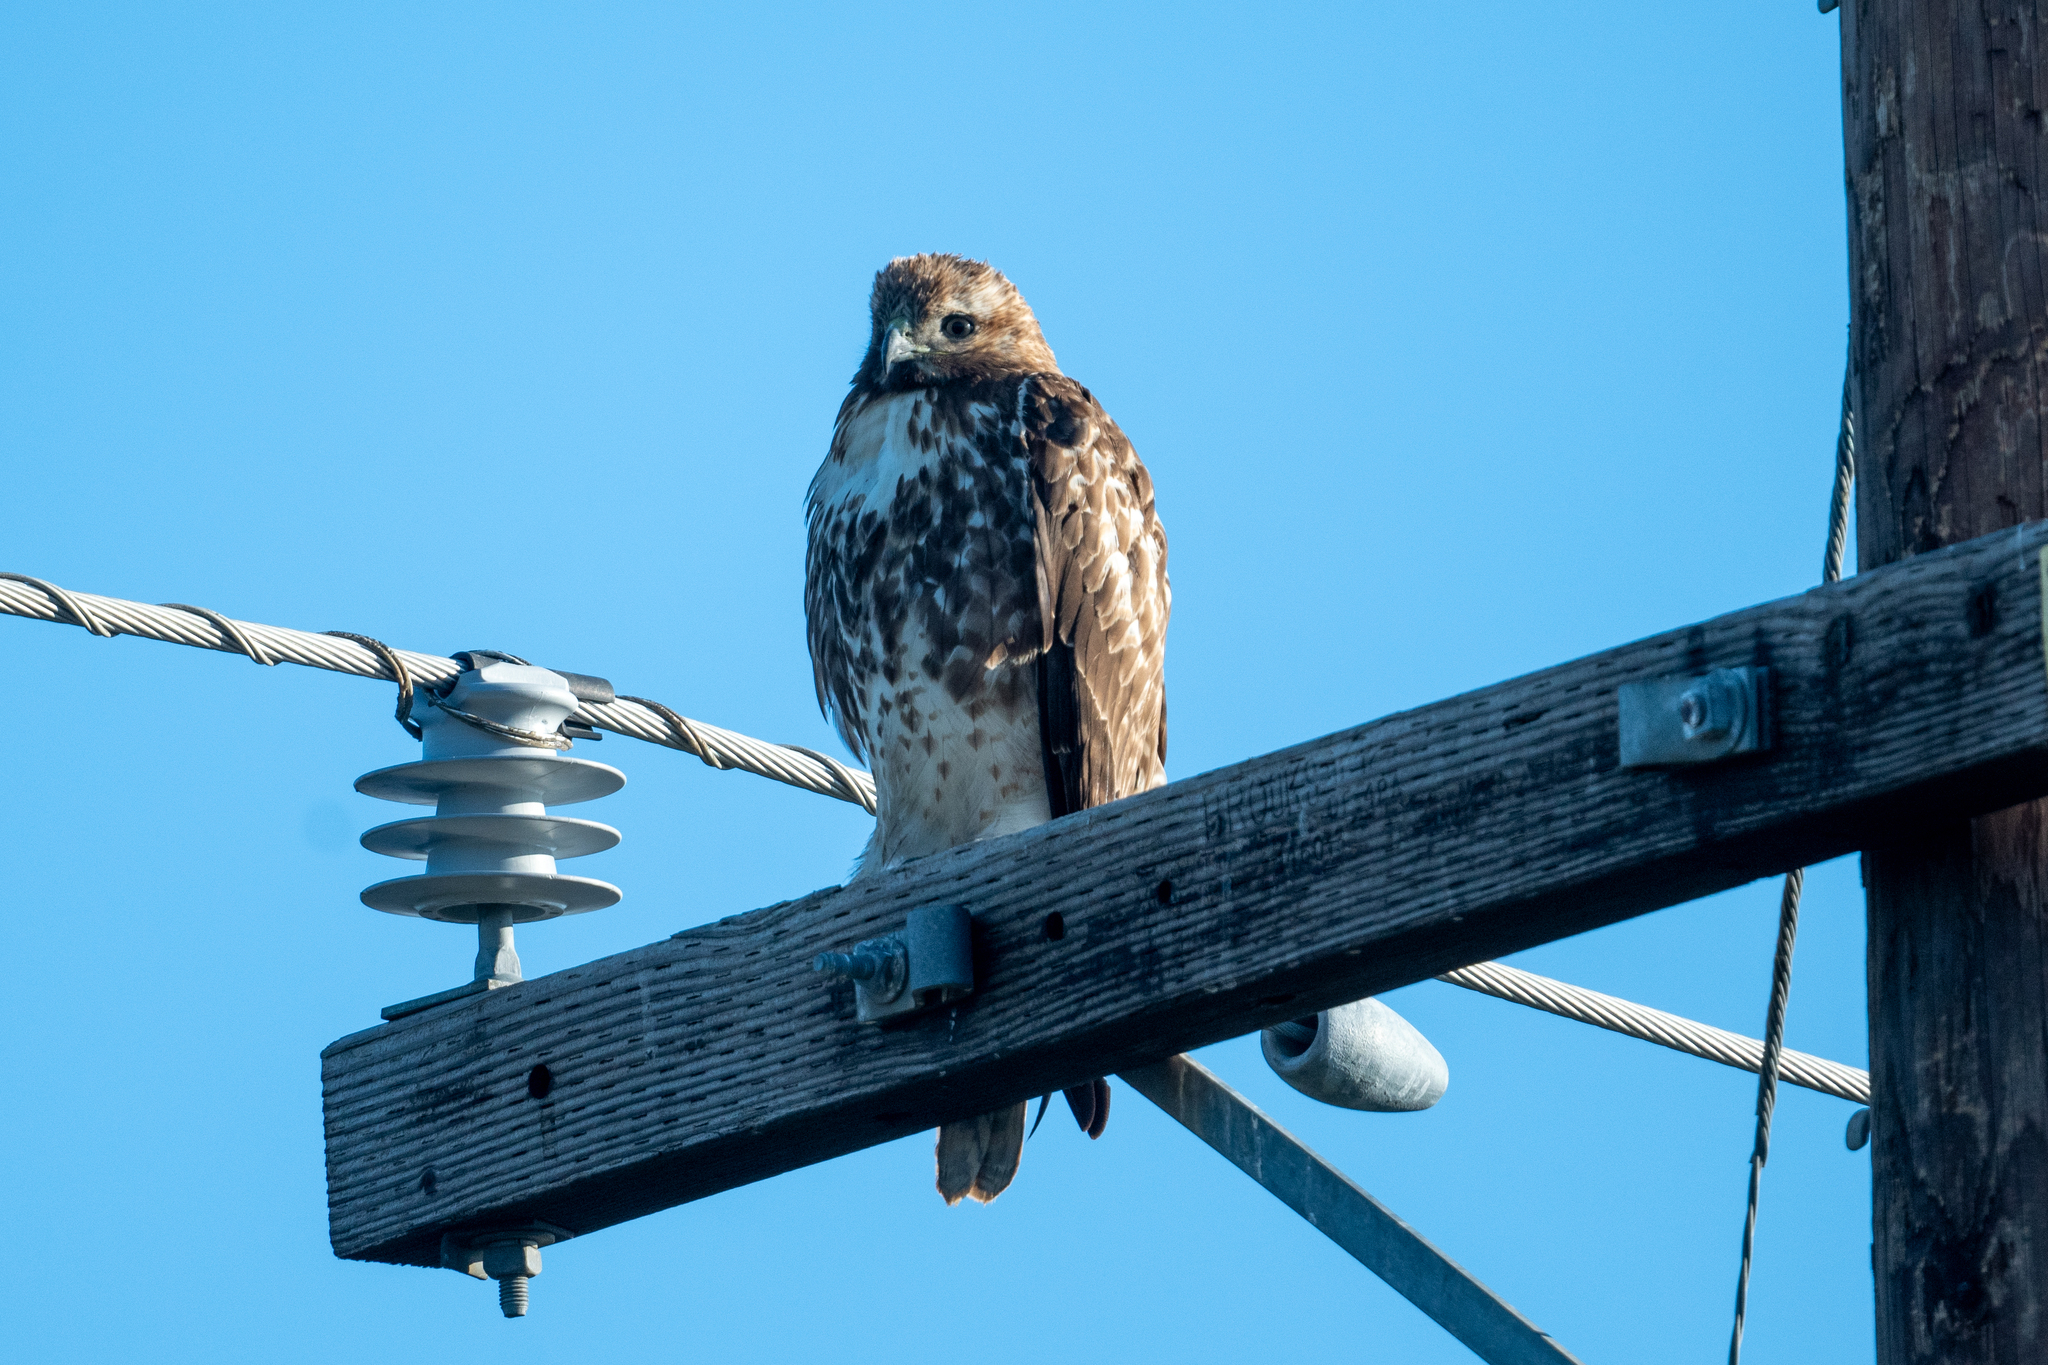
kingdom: Animalia
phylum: Chordata
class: Aves
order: Accipitriformes
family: Accipitridae
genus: Buteo
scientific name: Buteo jamaicensis
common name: Red-tailed hawk
